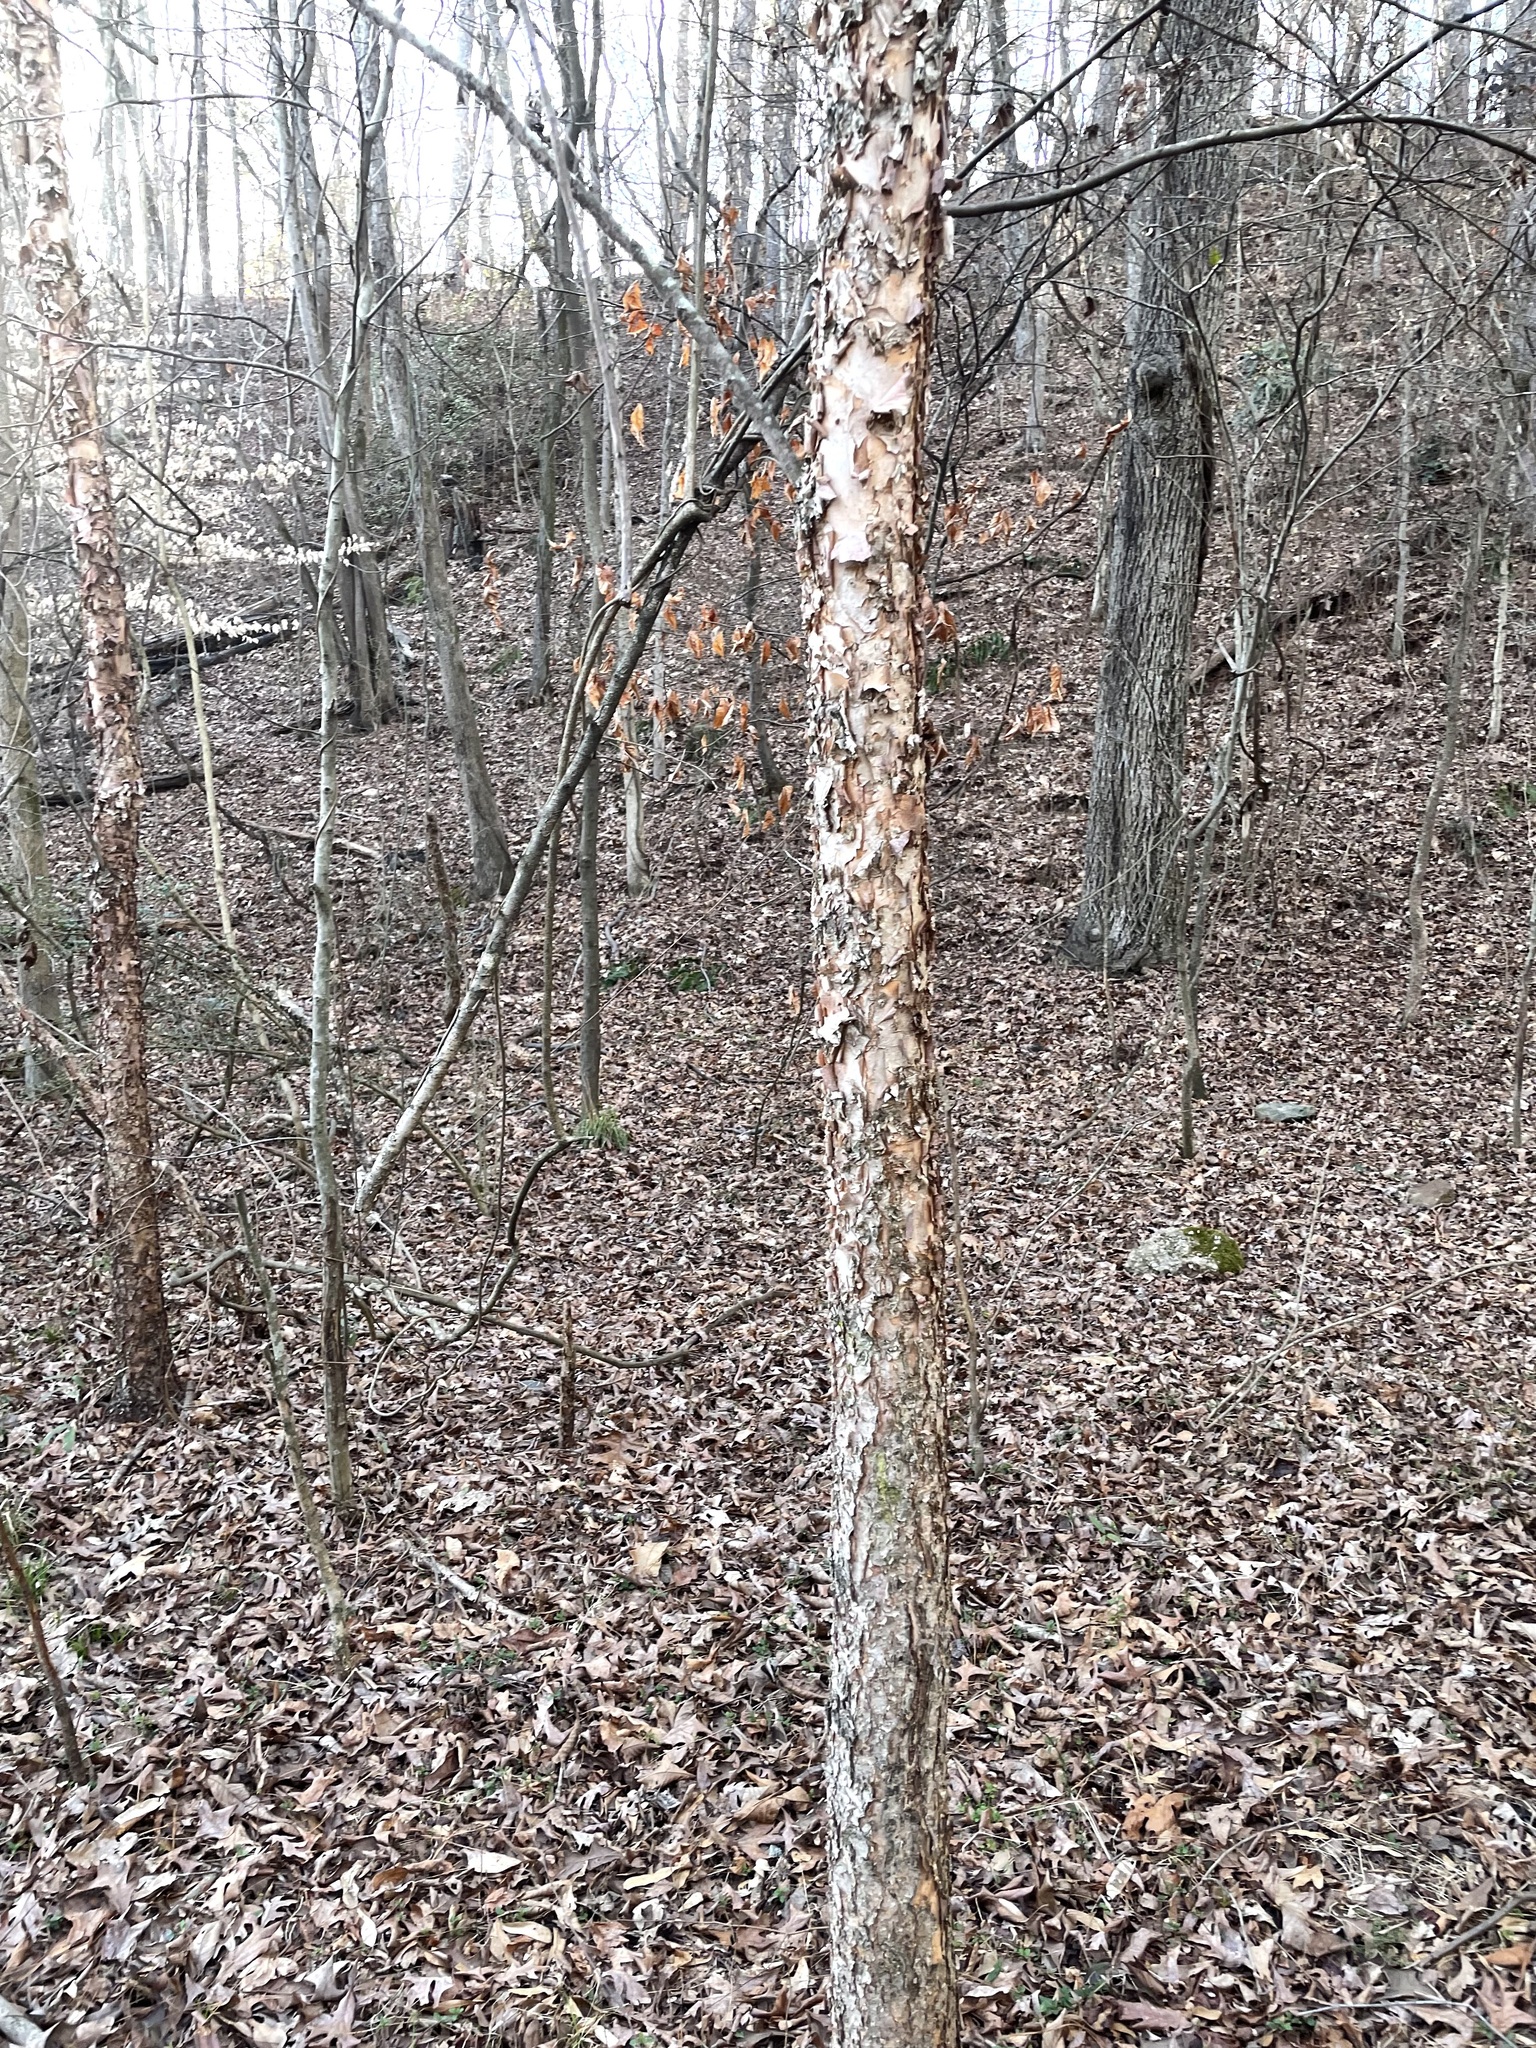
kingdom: Plantae
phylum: Tracheophyta
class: Magnoliopsida
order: Fagales
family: Betulaceae
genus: Betula
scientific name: Betula nigra
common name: Black birch
